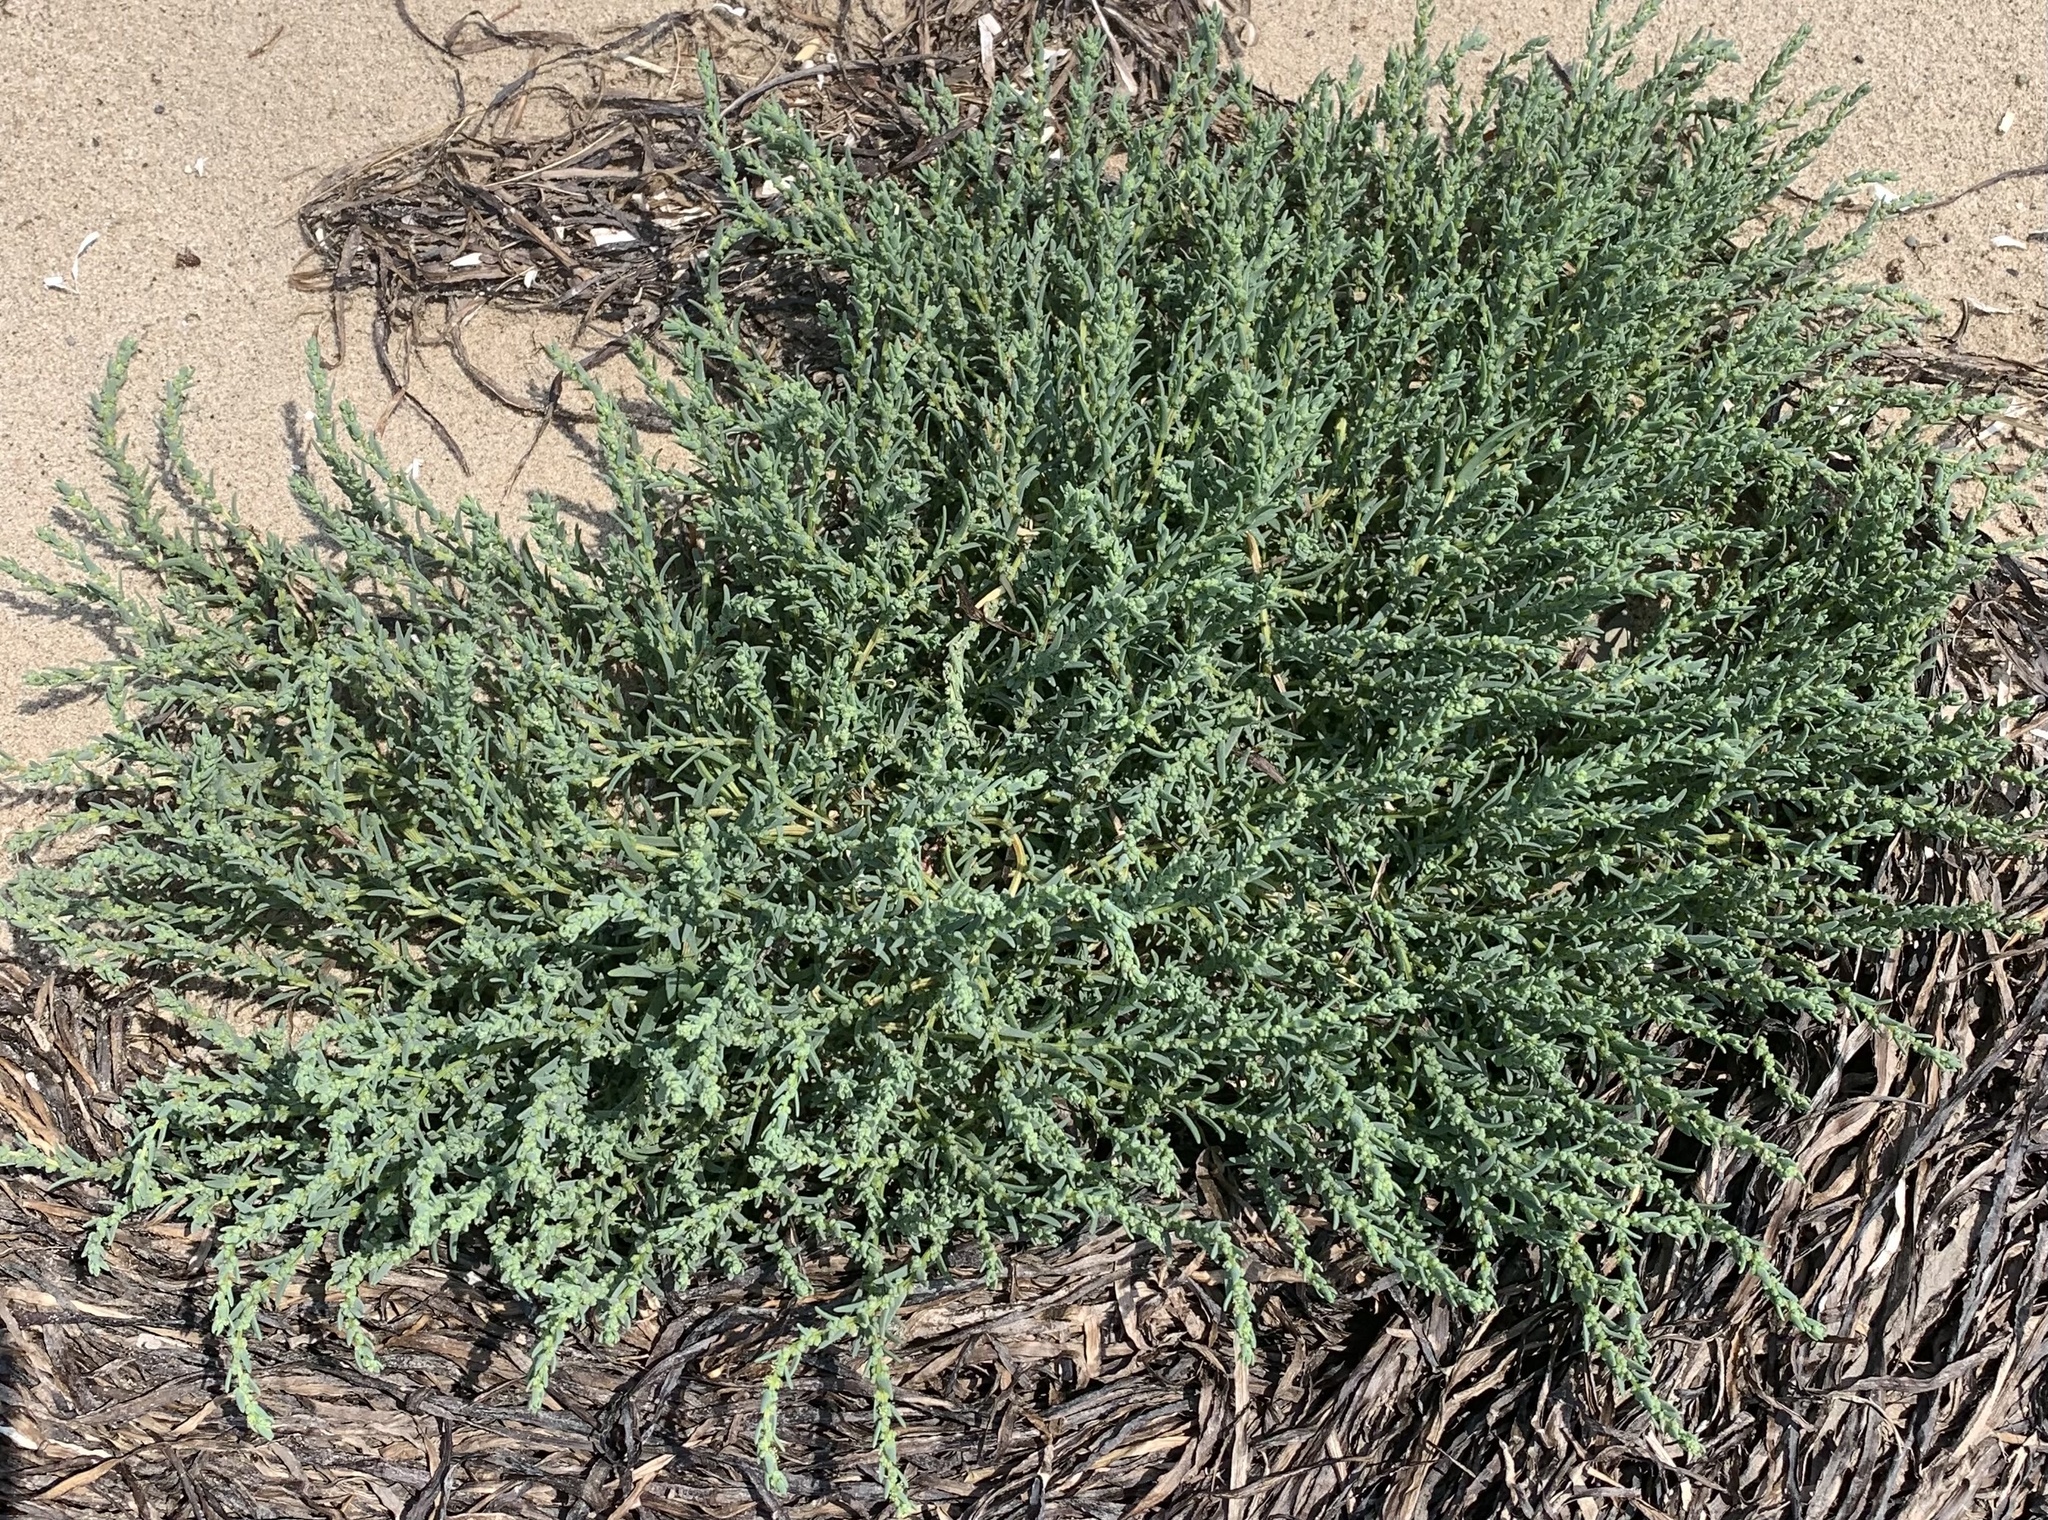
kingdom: Plantae
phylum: Tracheophyta
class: Magnoliopsida
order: Caryophyllales
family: Amaranthaceae
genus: Suaeda
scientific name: Suaeda maritima
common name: Annual sea-blite
